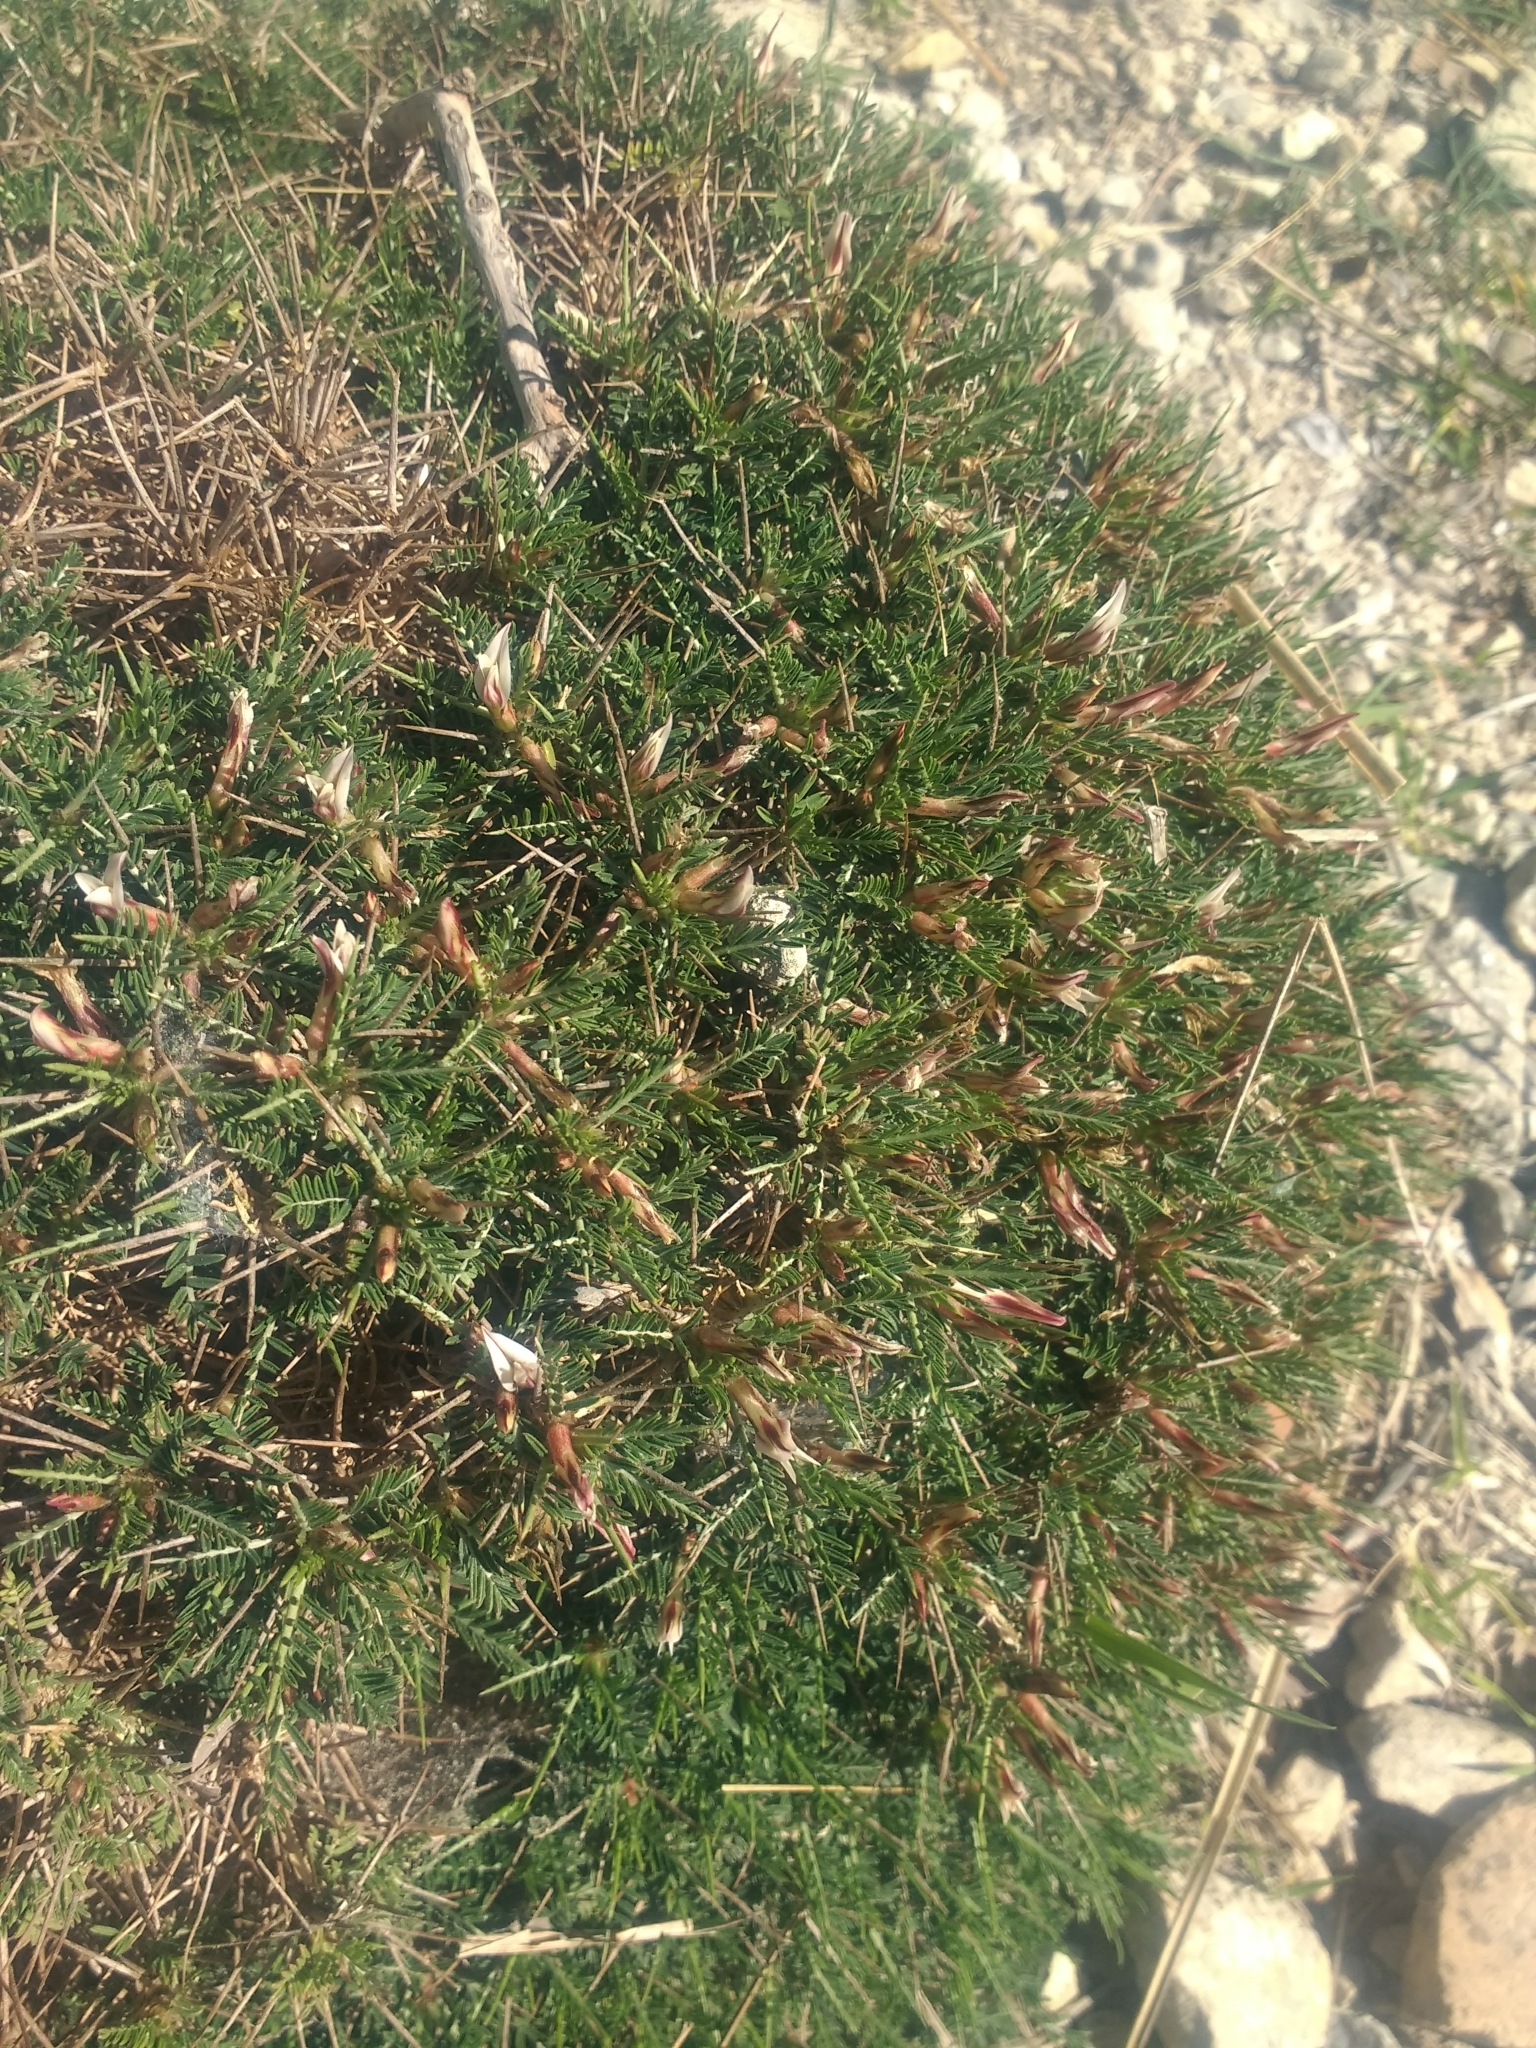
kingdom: Plantae
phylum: Tracheophyta
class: Magnoliopsida
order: Fabales
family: Fabaceae
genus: Astragalus
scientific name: Astragalus balearicus
